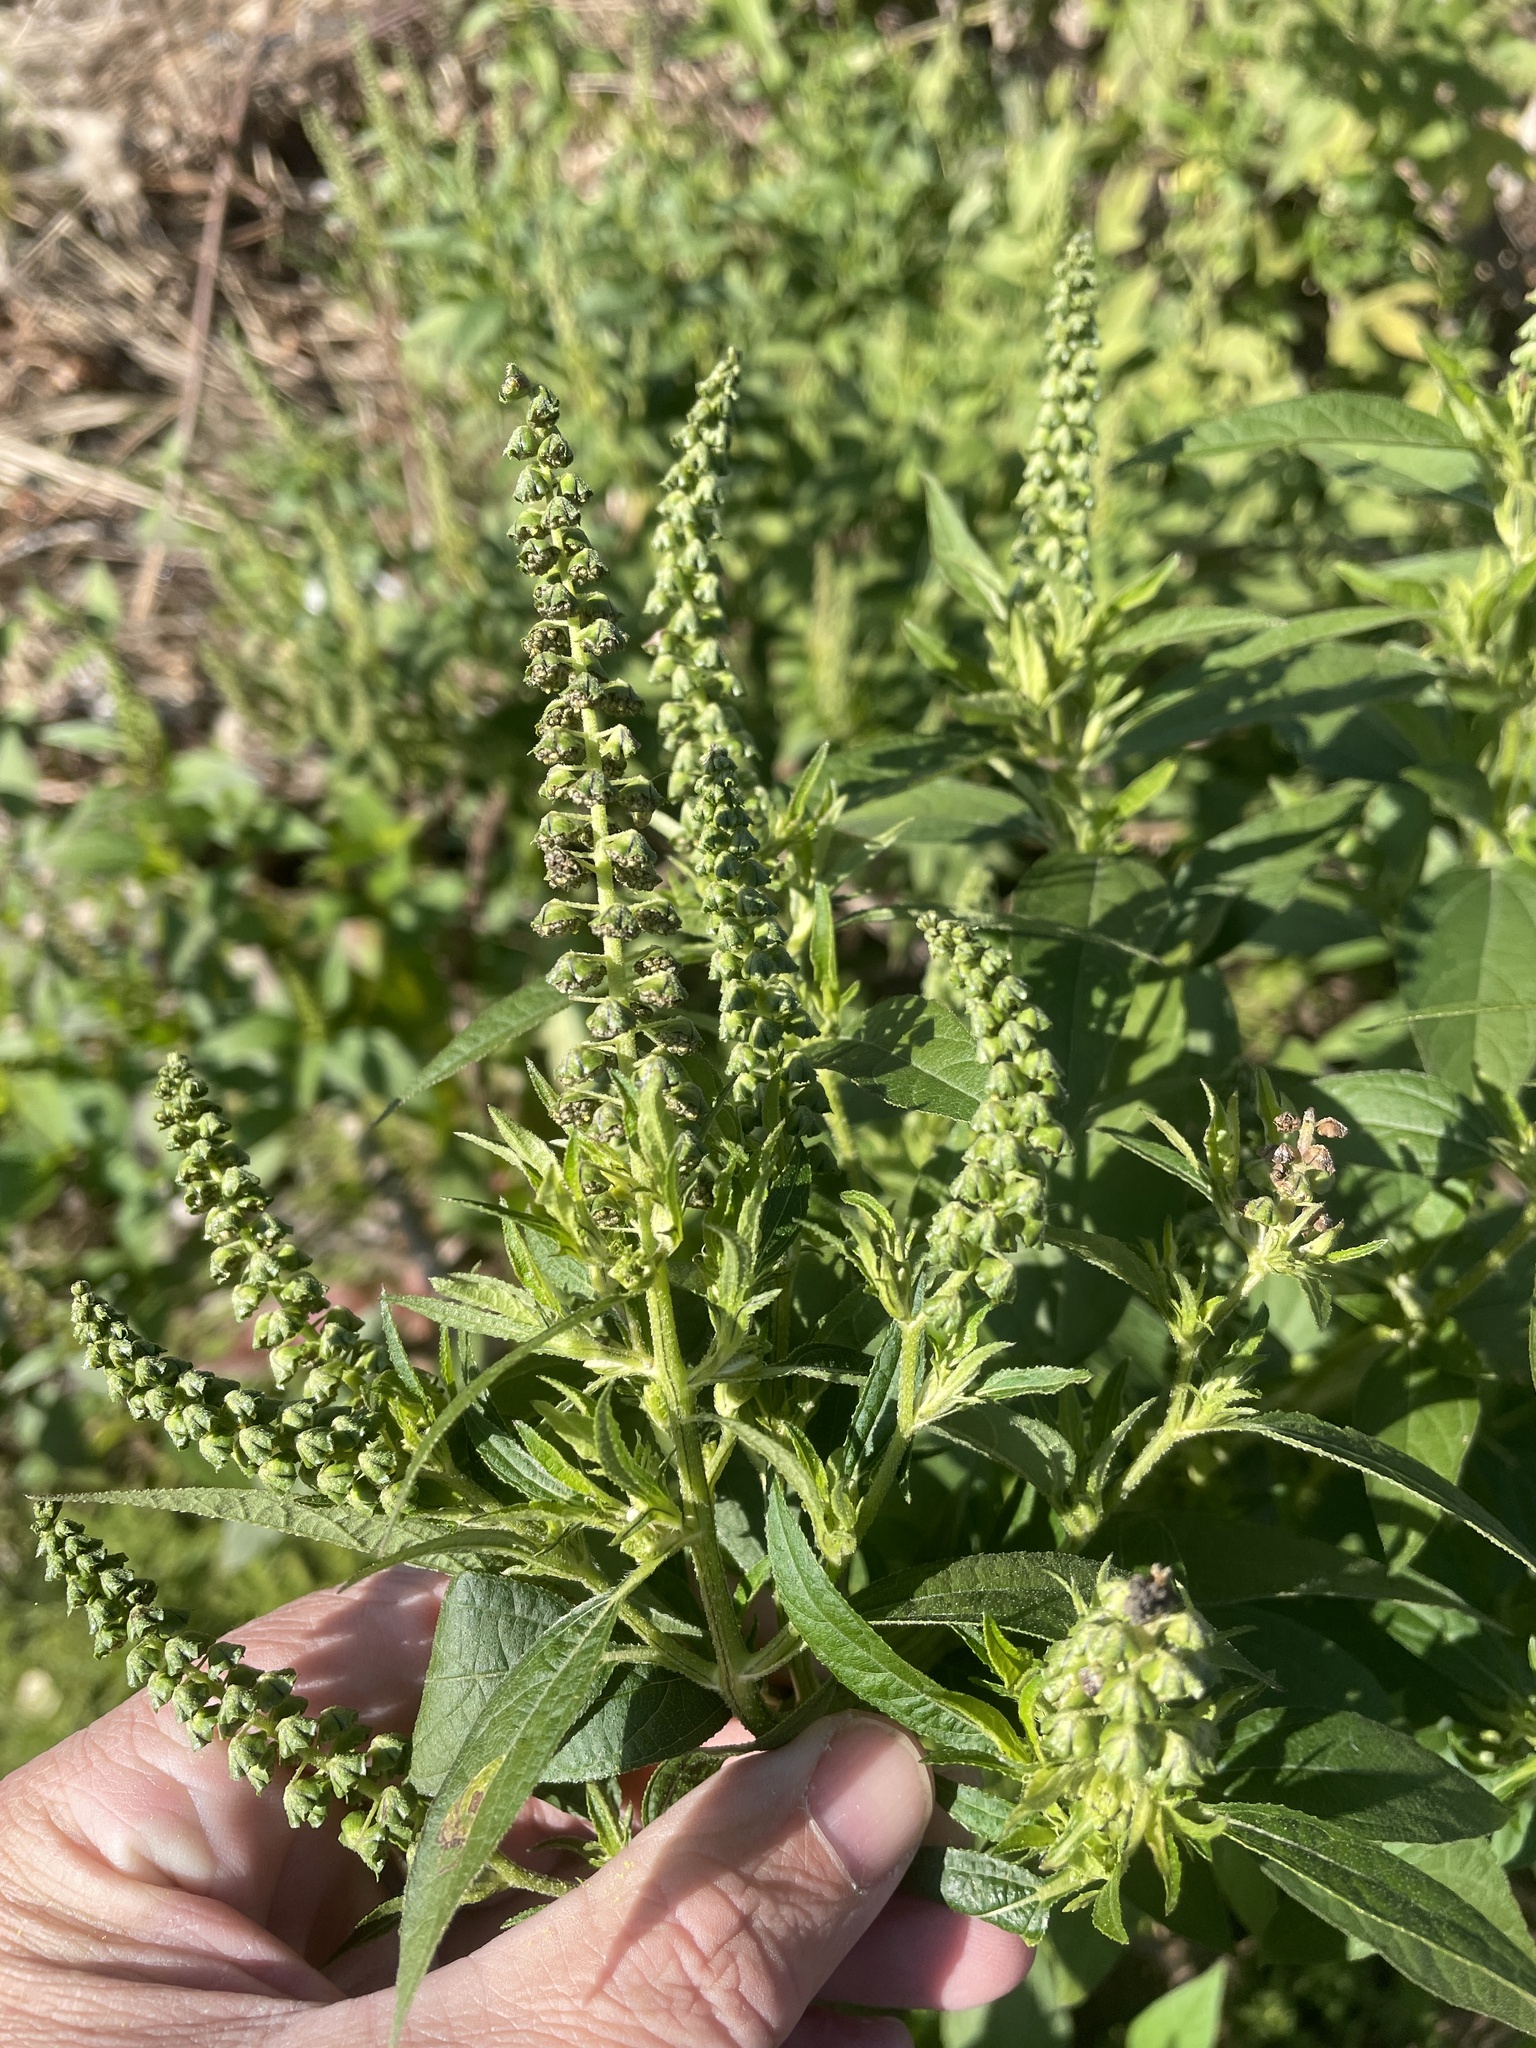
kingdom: Plantae
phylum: Tracheophyta
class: Magnoliopsida
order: Asterales
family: Asteraceae
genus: Ambrosia
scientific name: Ambrosia trifida
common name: Giant ragweed
